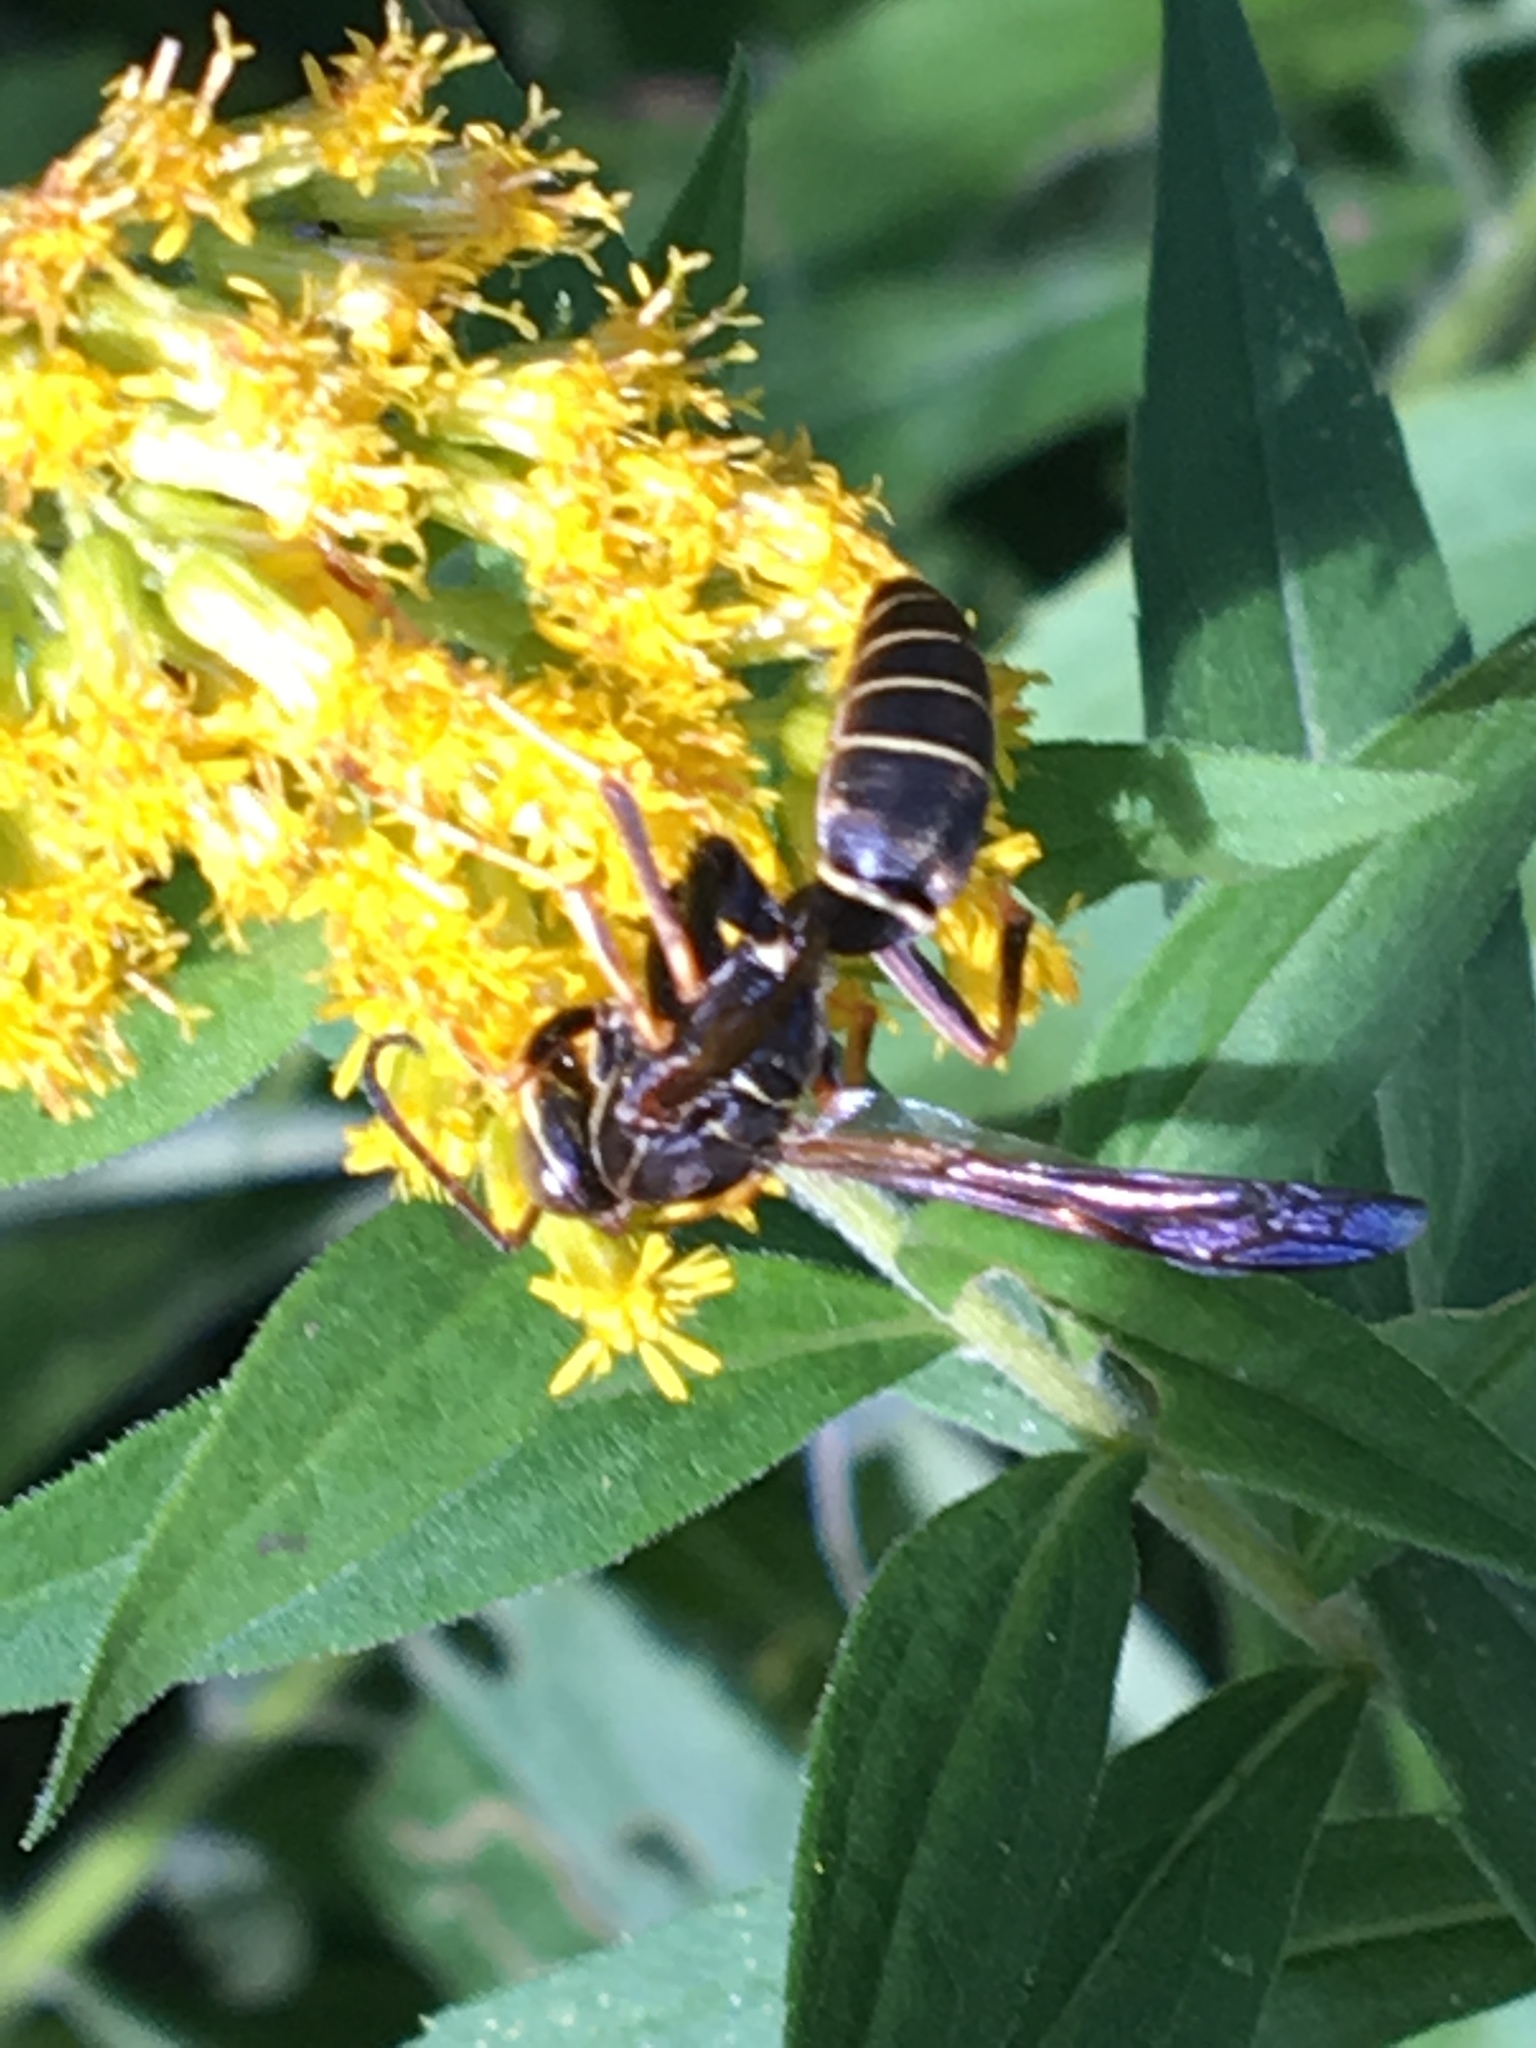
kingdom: Animalia
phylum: Arthropoda
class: Insecta
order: Hymenoptera
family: Eumenidae
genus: Polistes
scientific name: Polistes fuscatus
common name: Dark paper wasp
